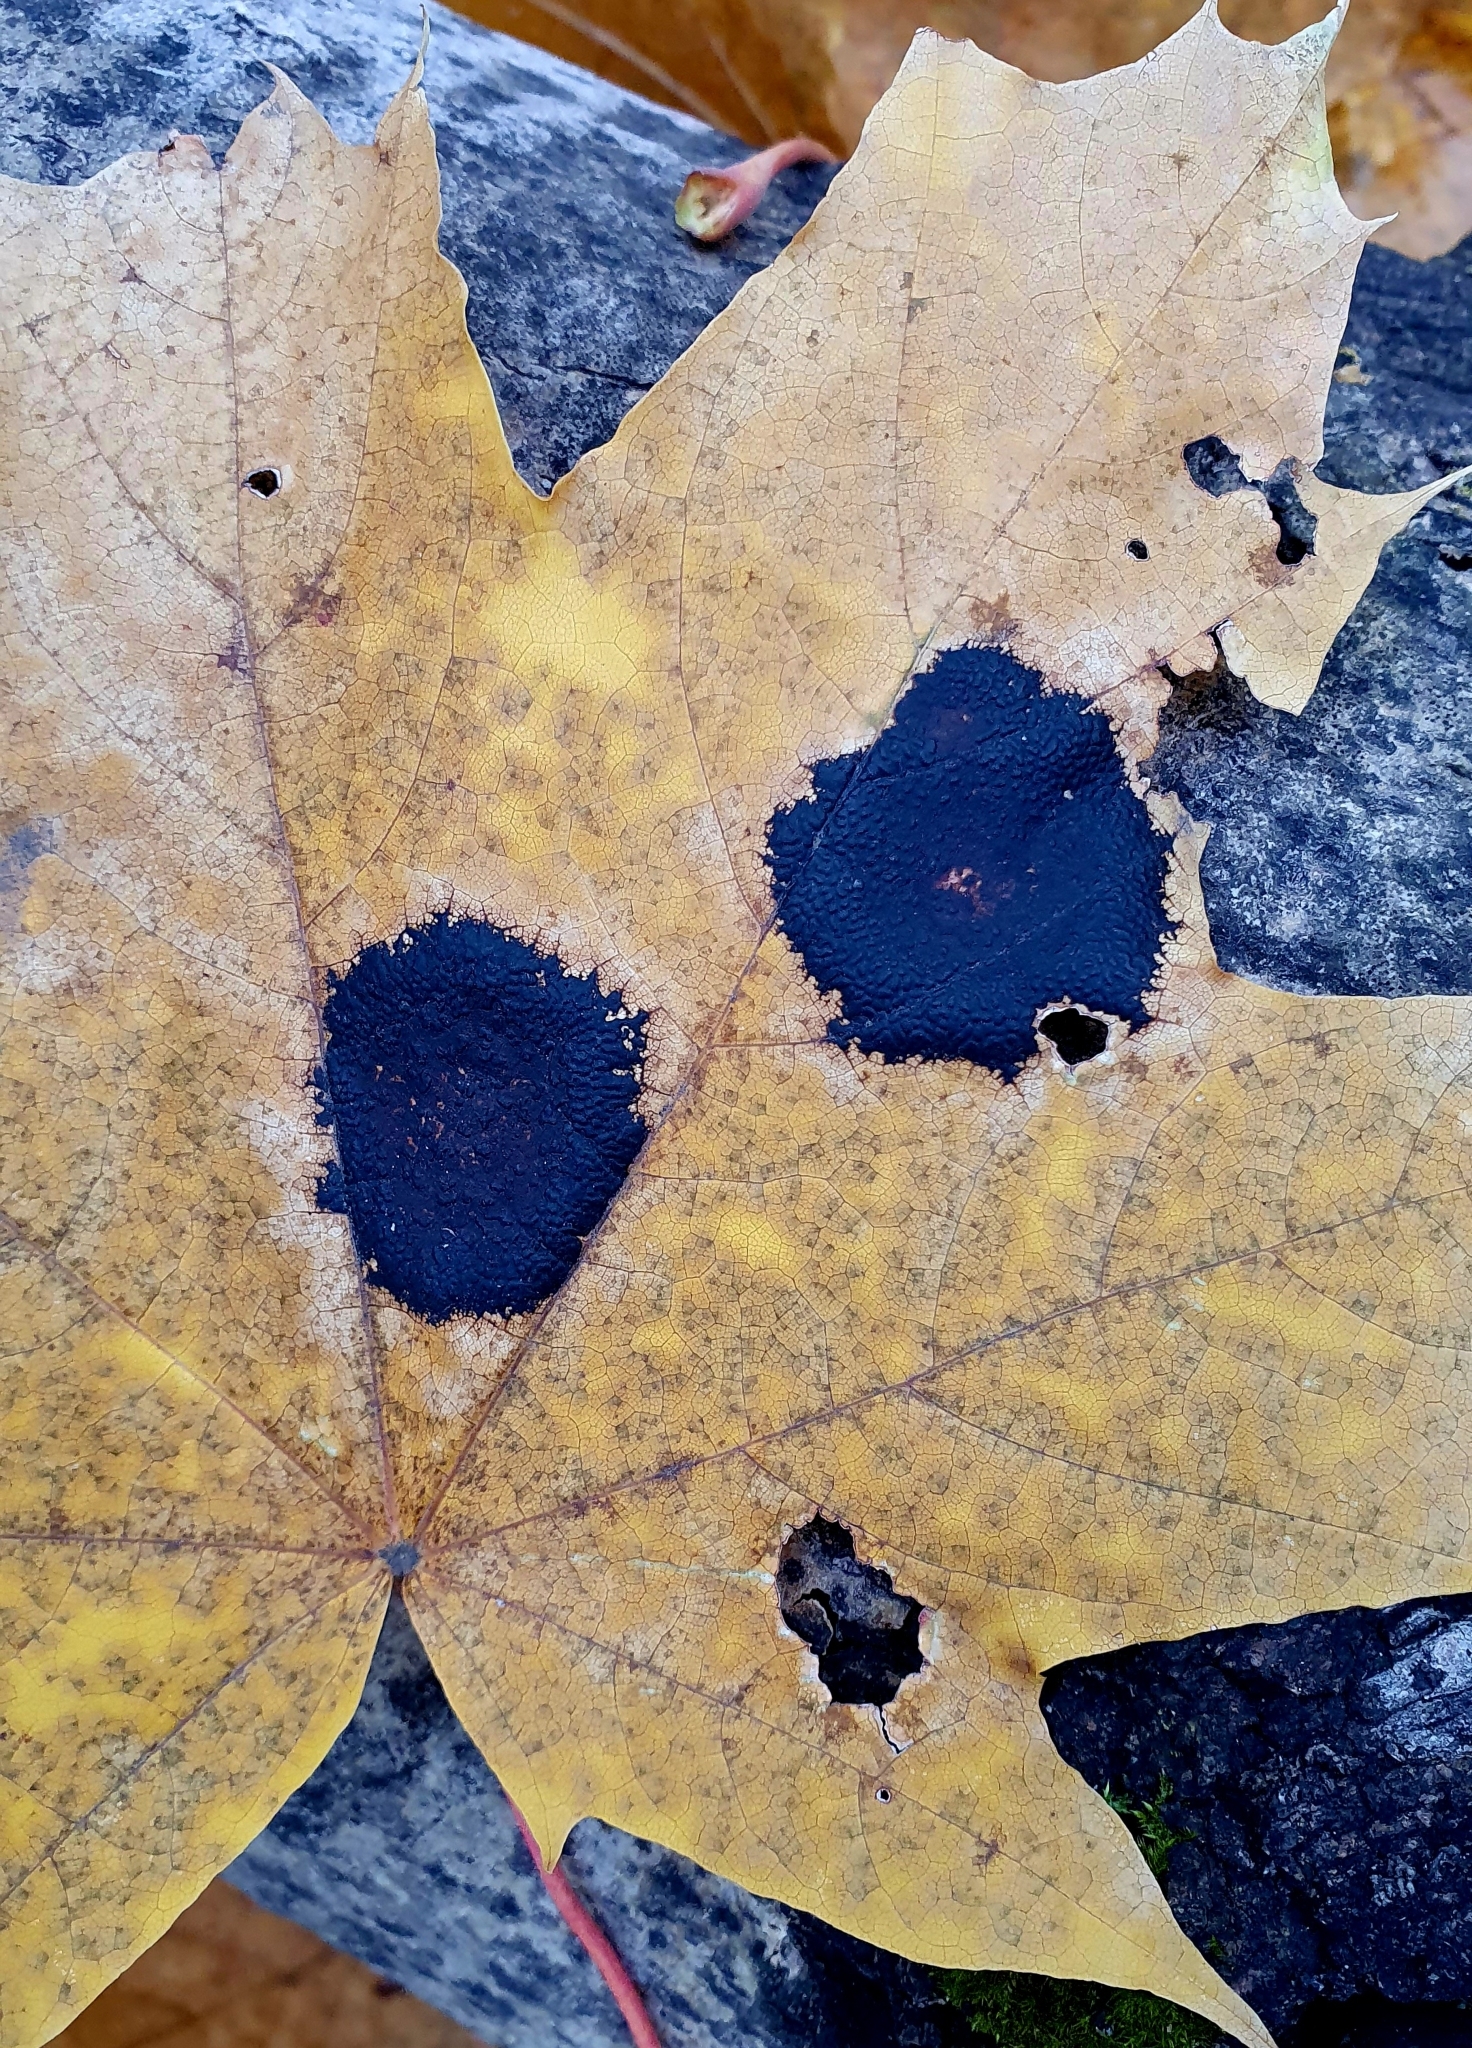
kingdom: Fungi
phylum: Ascomycota
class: Leotiomycetes
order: Rhytismatales
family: Rhytismataceae
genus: Rhytisma
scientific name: Rhytisma acerinum
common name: European tar spot
